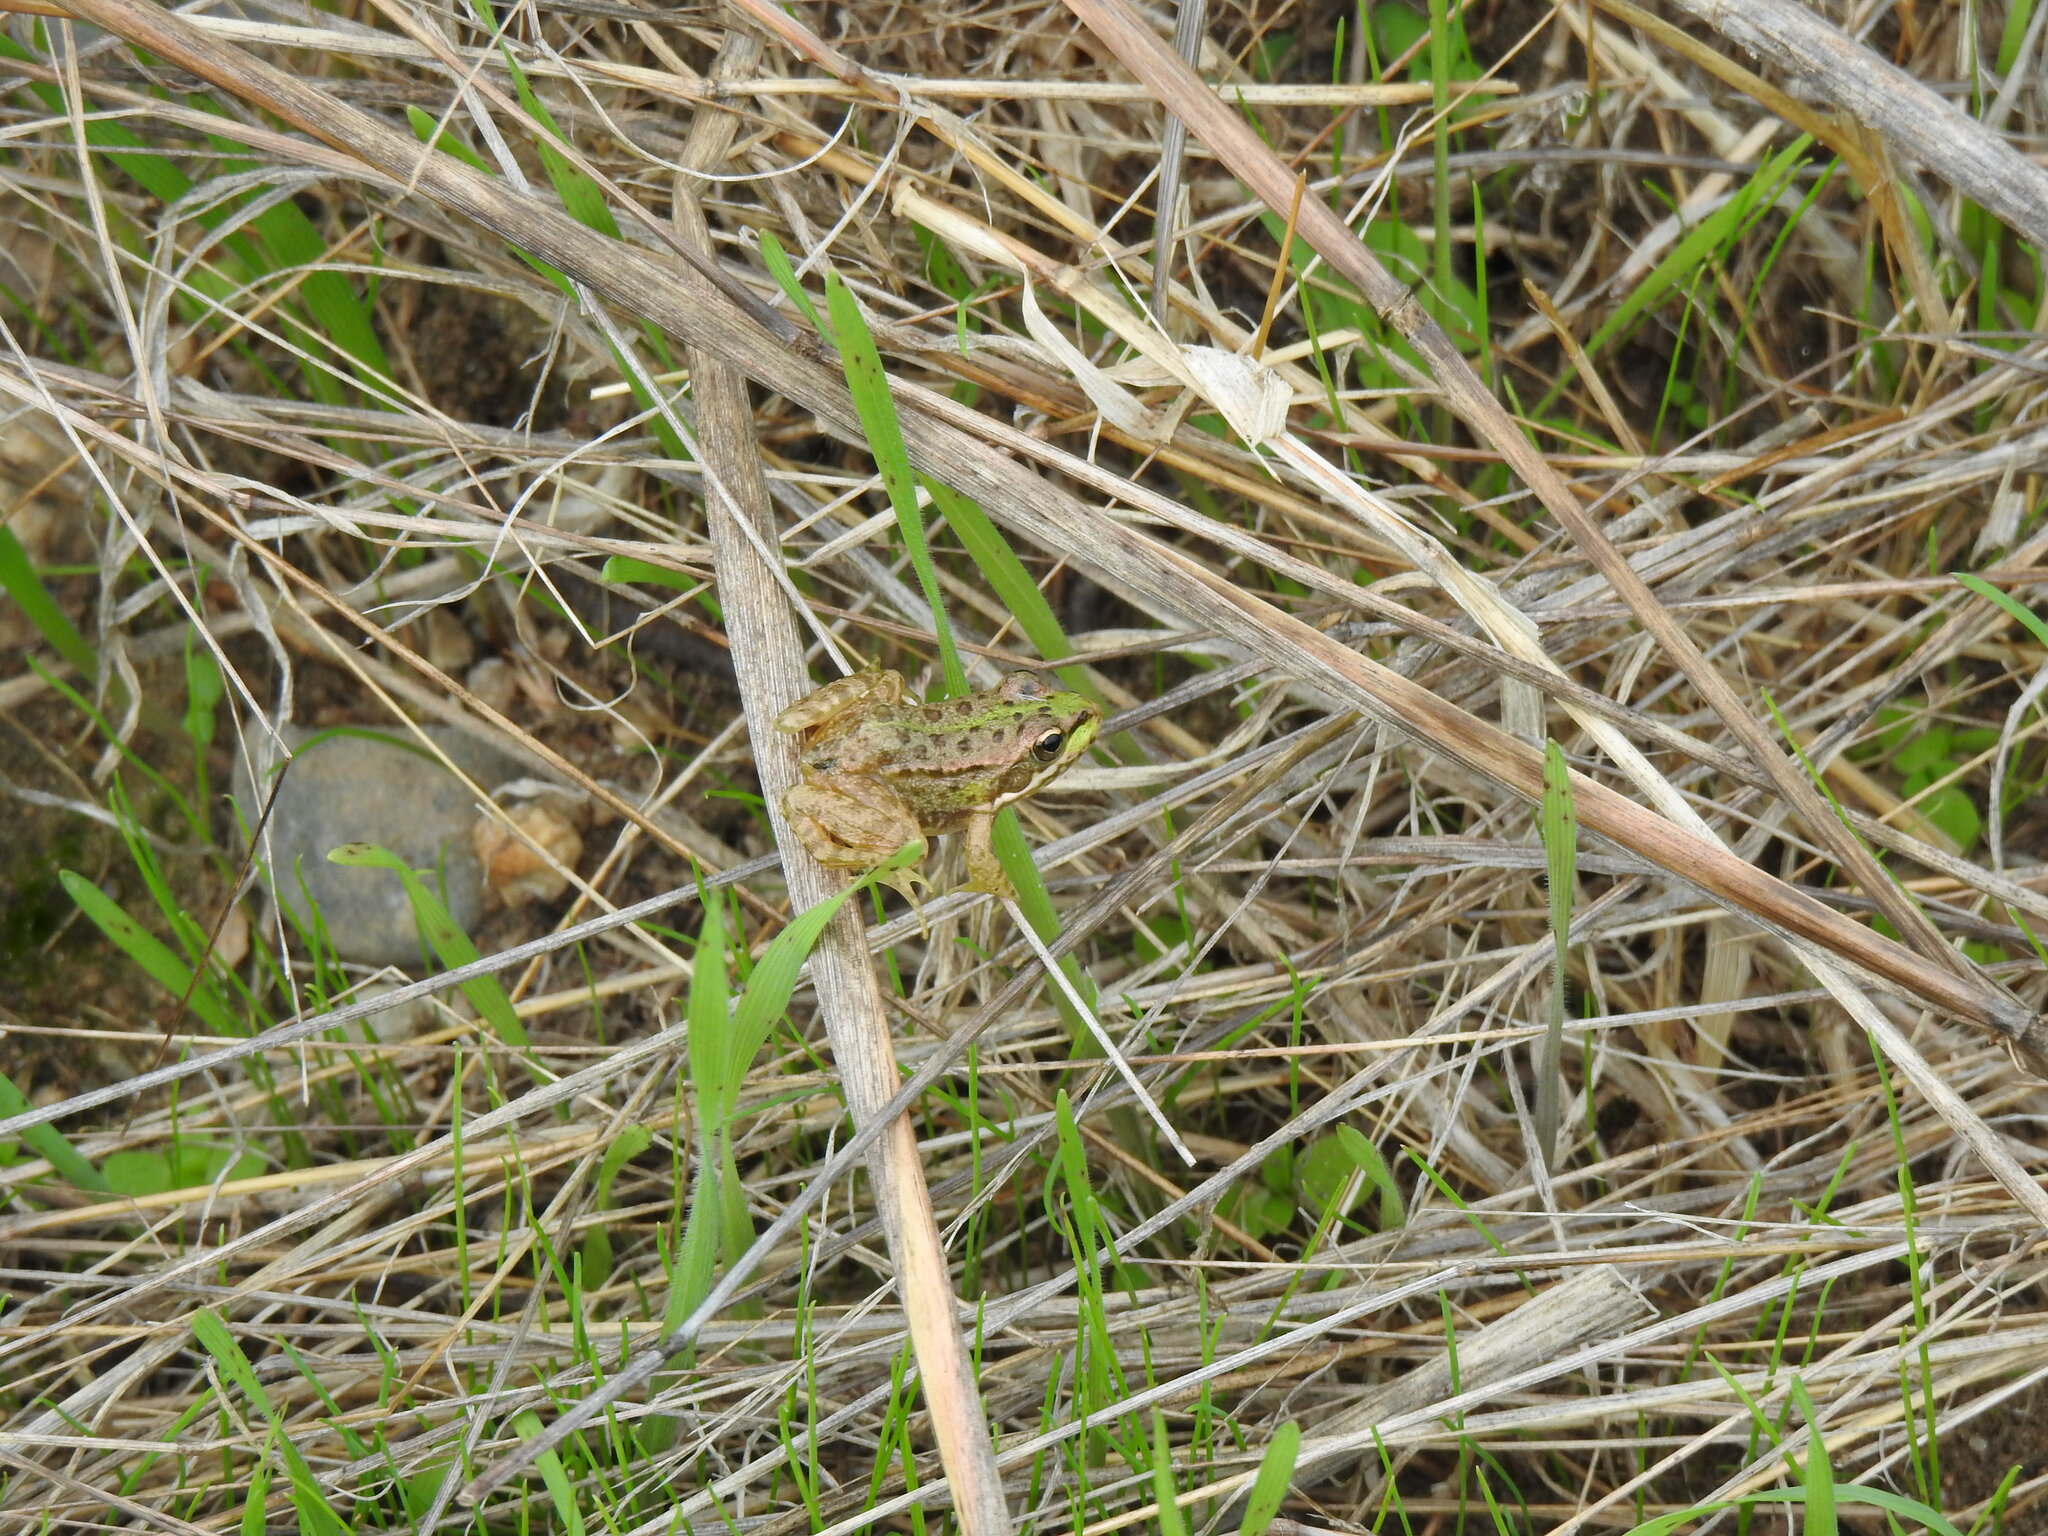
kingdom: Animalia
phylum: Chordata
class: Amphibia
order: Anura
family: Ranidae
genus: Pelophylax
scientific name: Pelophylax perezi
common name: Perez's frog
